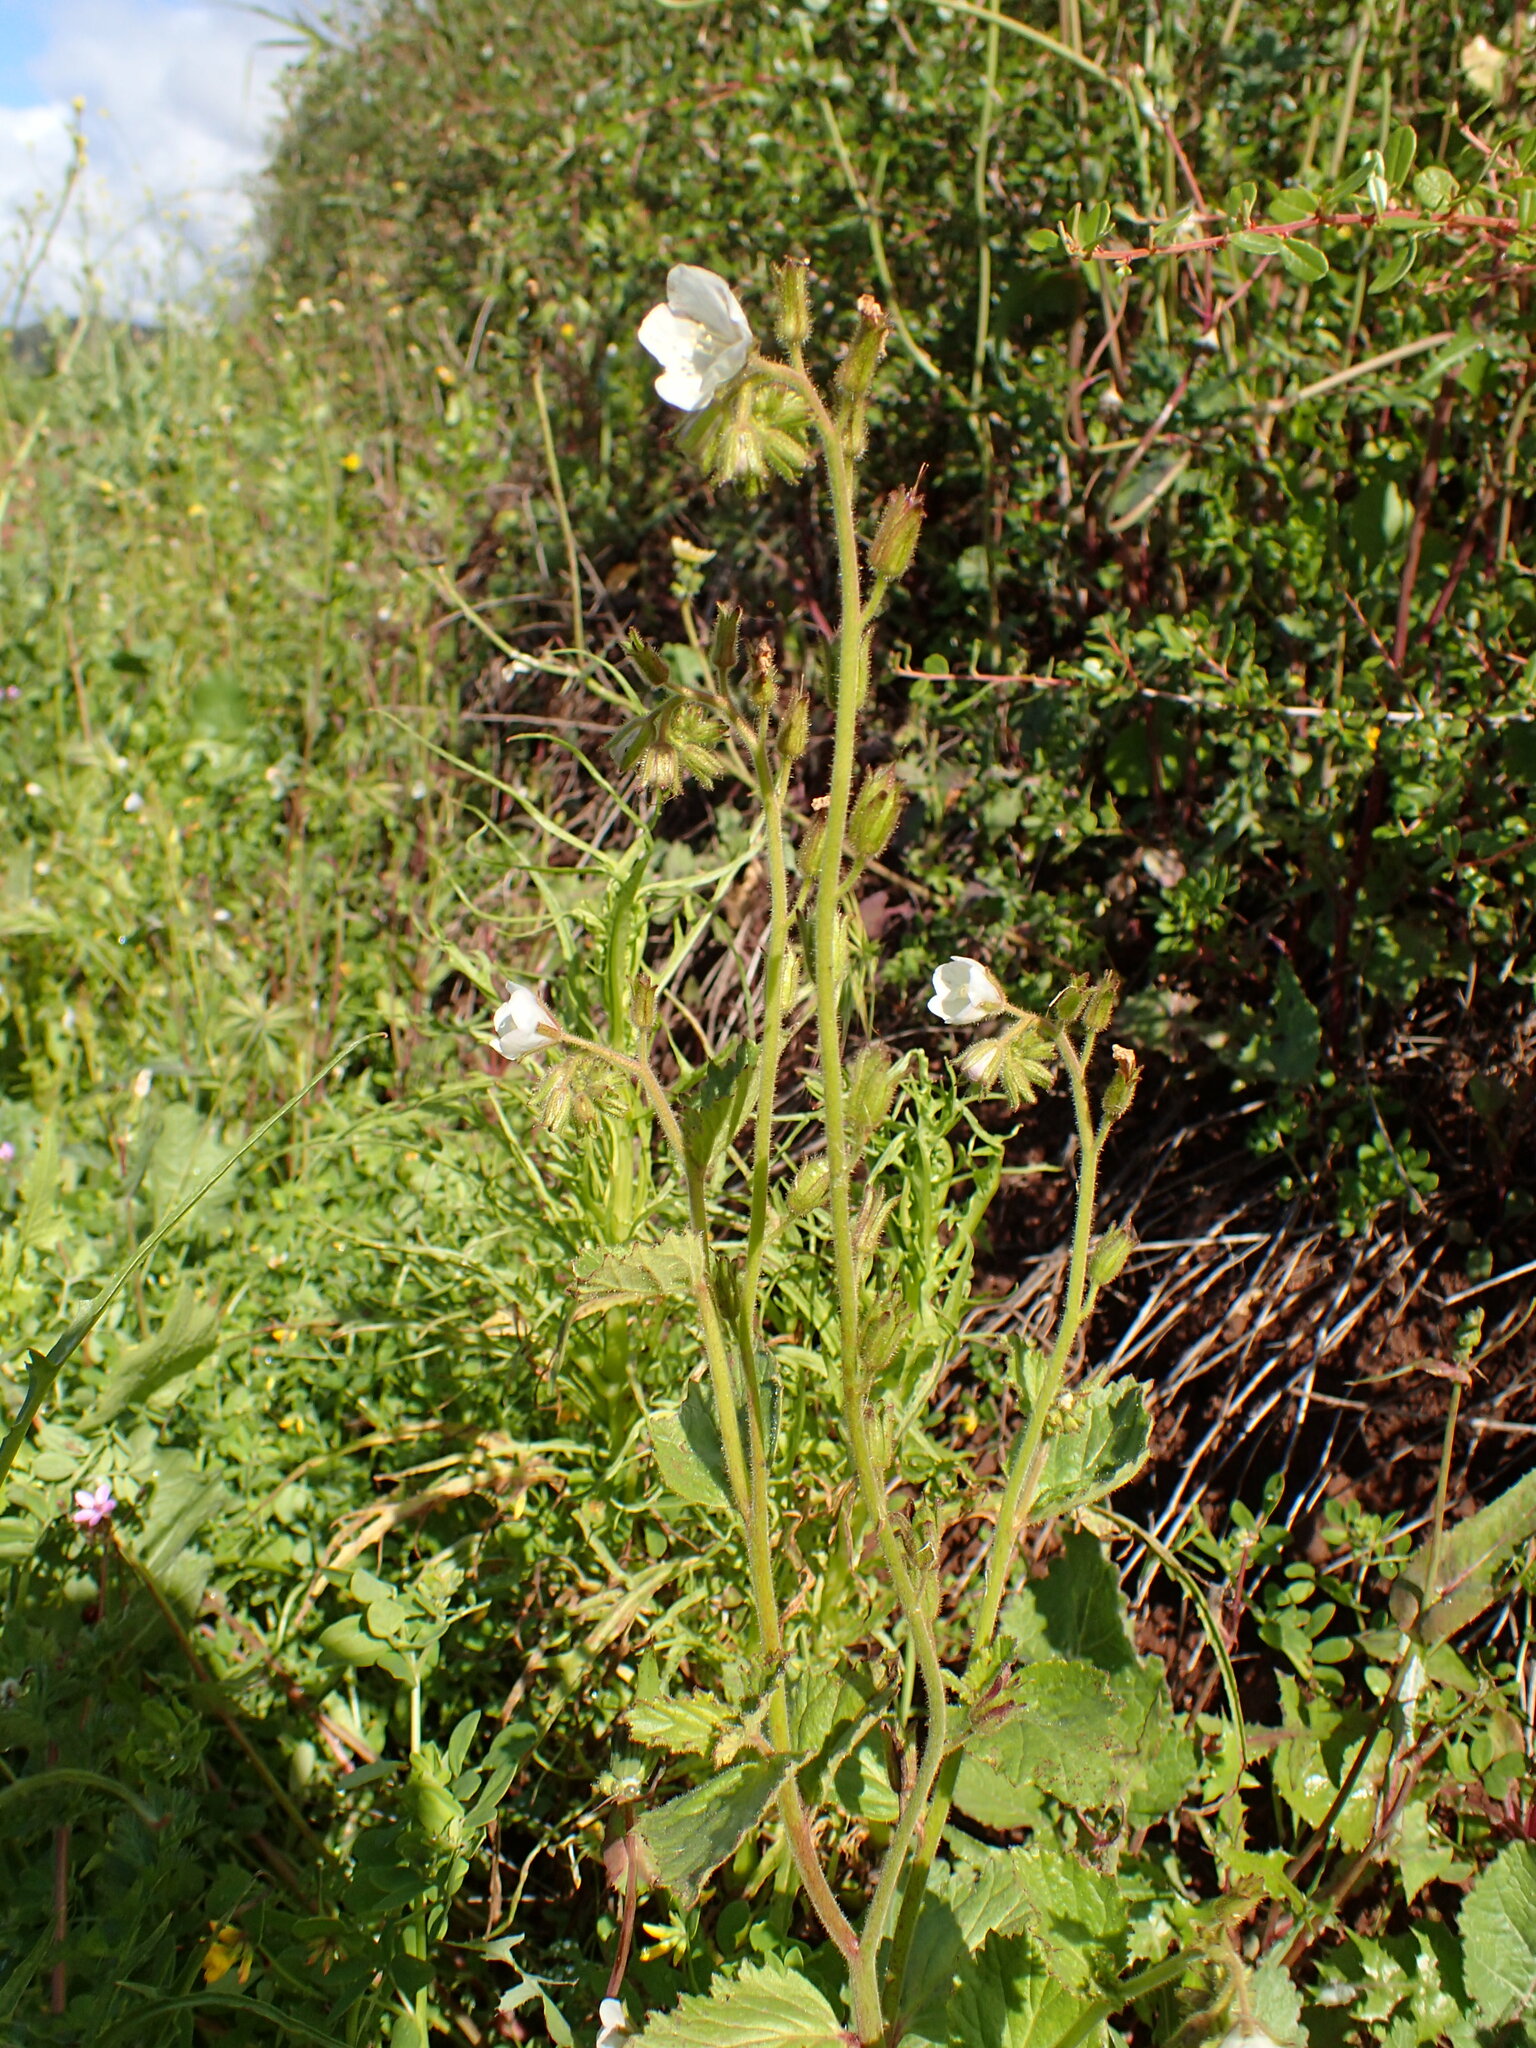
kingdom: Plantae
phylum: Tracheophyta
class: Magnoliopsida
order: Boraginales
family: Hydrophyllaceae
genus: Phacelia
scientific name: Phacelia viscida
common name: Sticky phacelia
